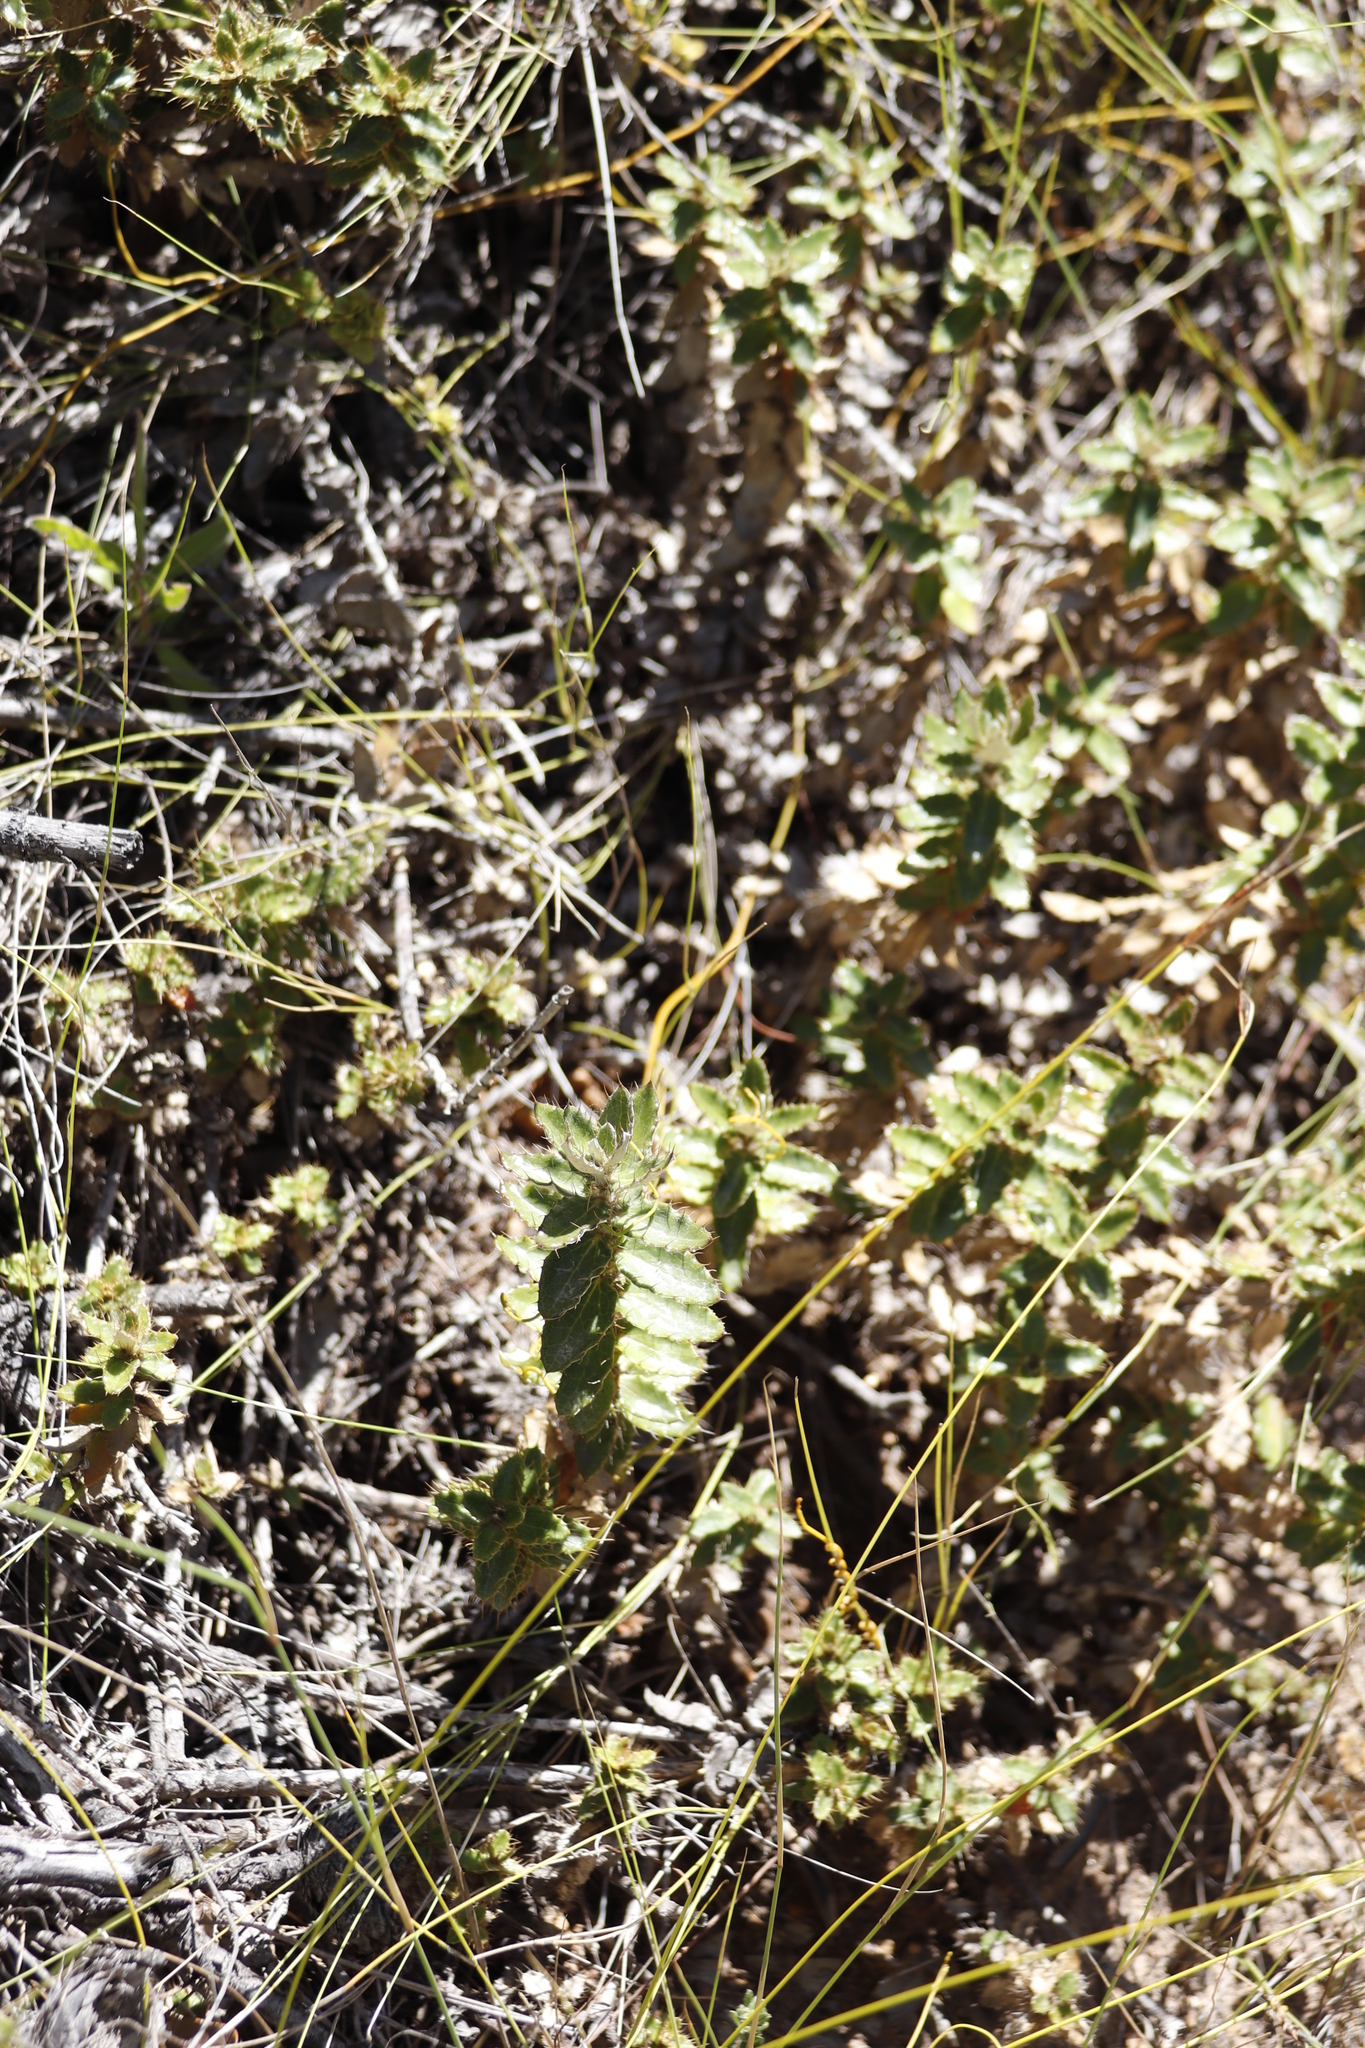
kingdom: Plantae
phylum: Tracheophyta
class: Magnoliopsida
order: Asterales
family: Asteraceae
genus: Berkheya
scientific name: Berkheya barbata
